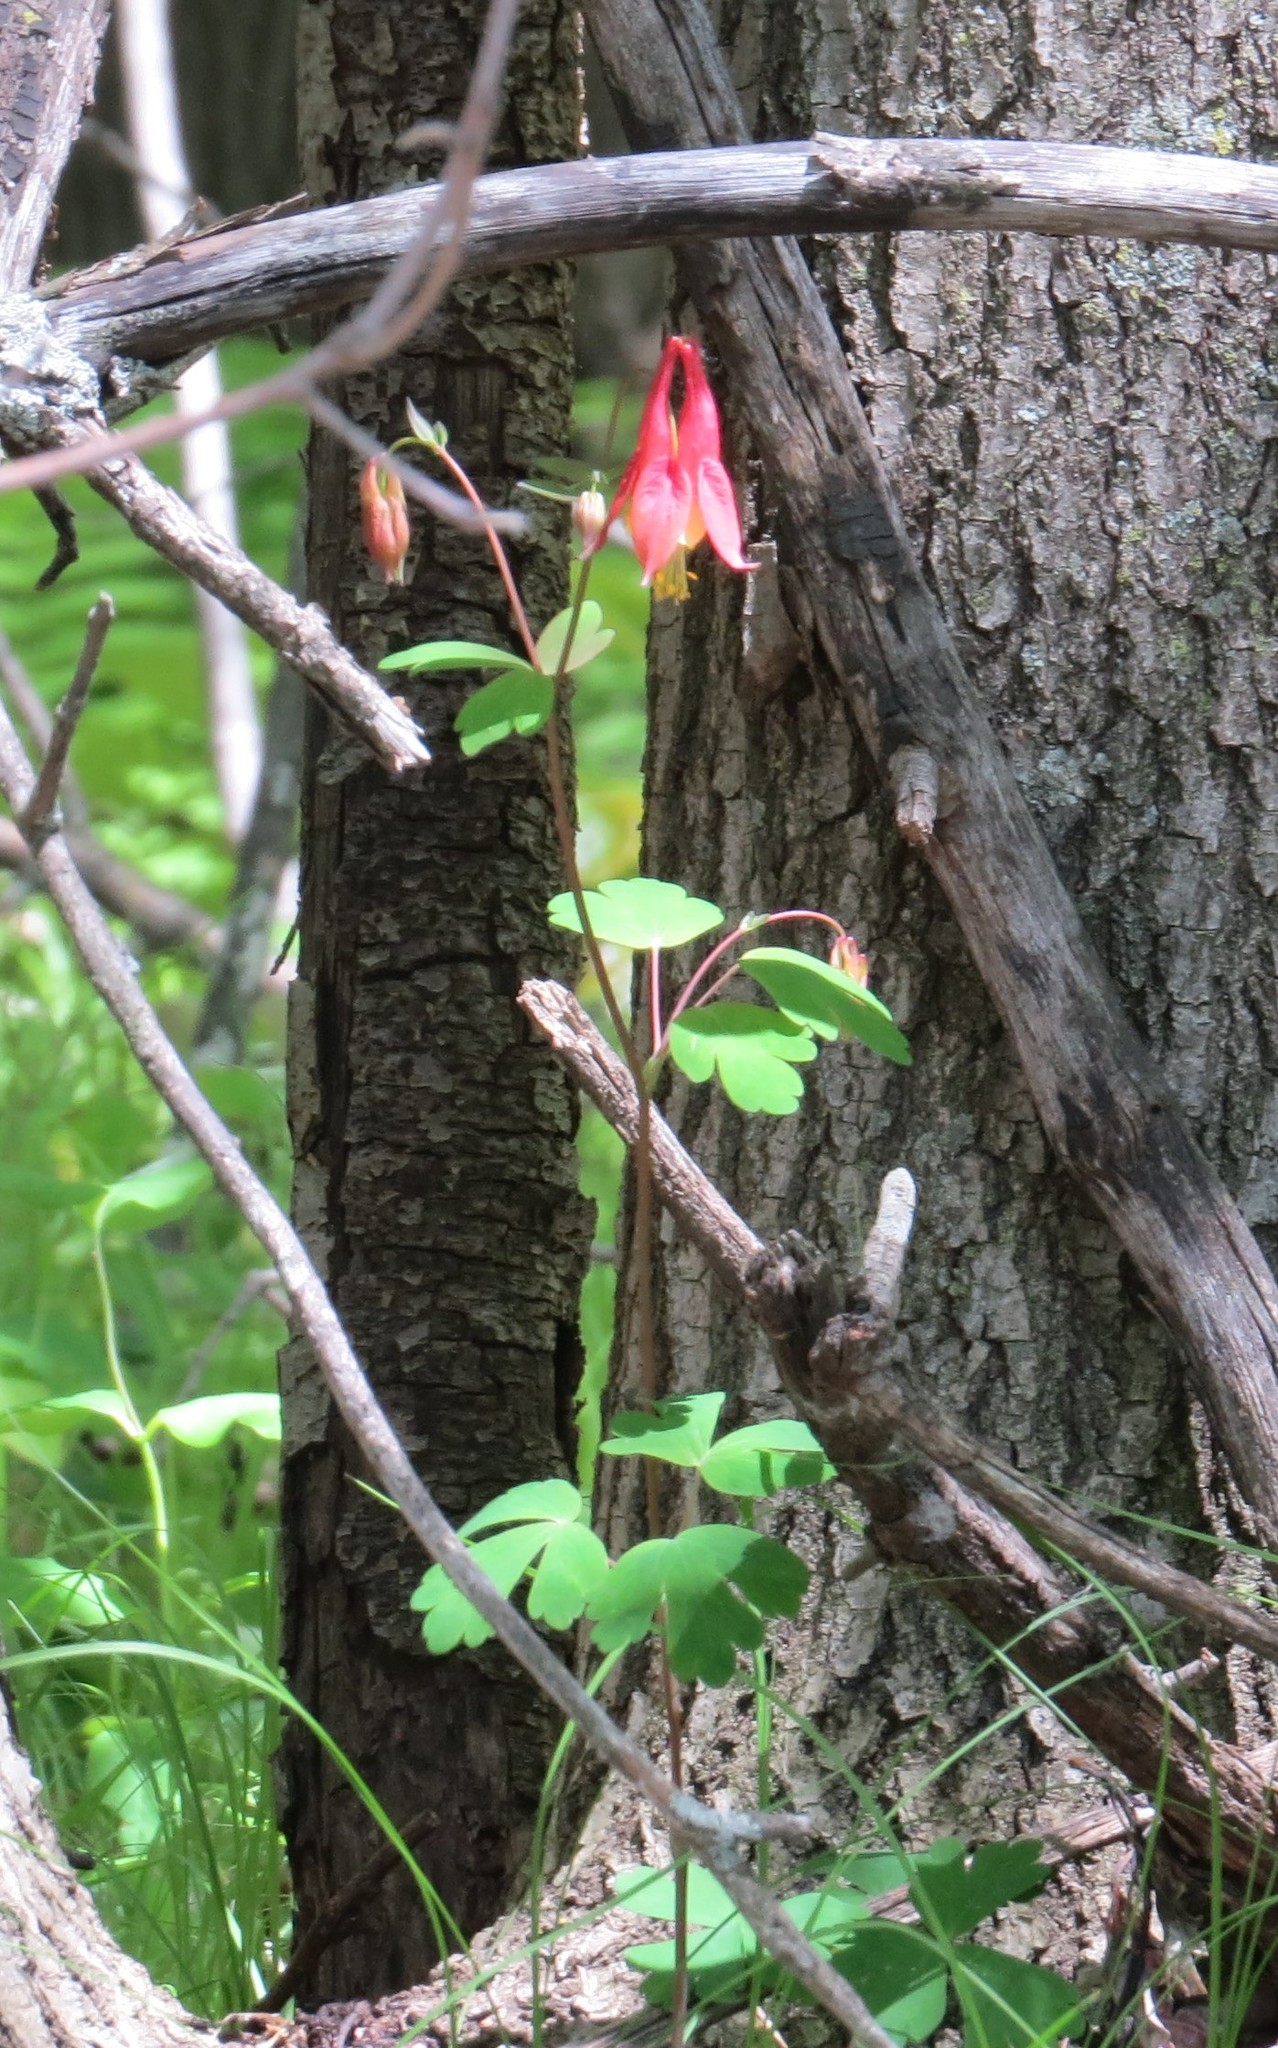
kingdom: Plantae
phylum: Tracheophyta
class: Magnoliopsida
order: Ranunculales
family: Ranunculaceae
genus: Aquilegia
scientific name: Aquilegia canadensis
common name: American columbine
